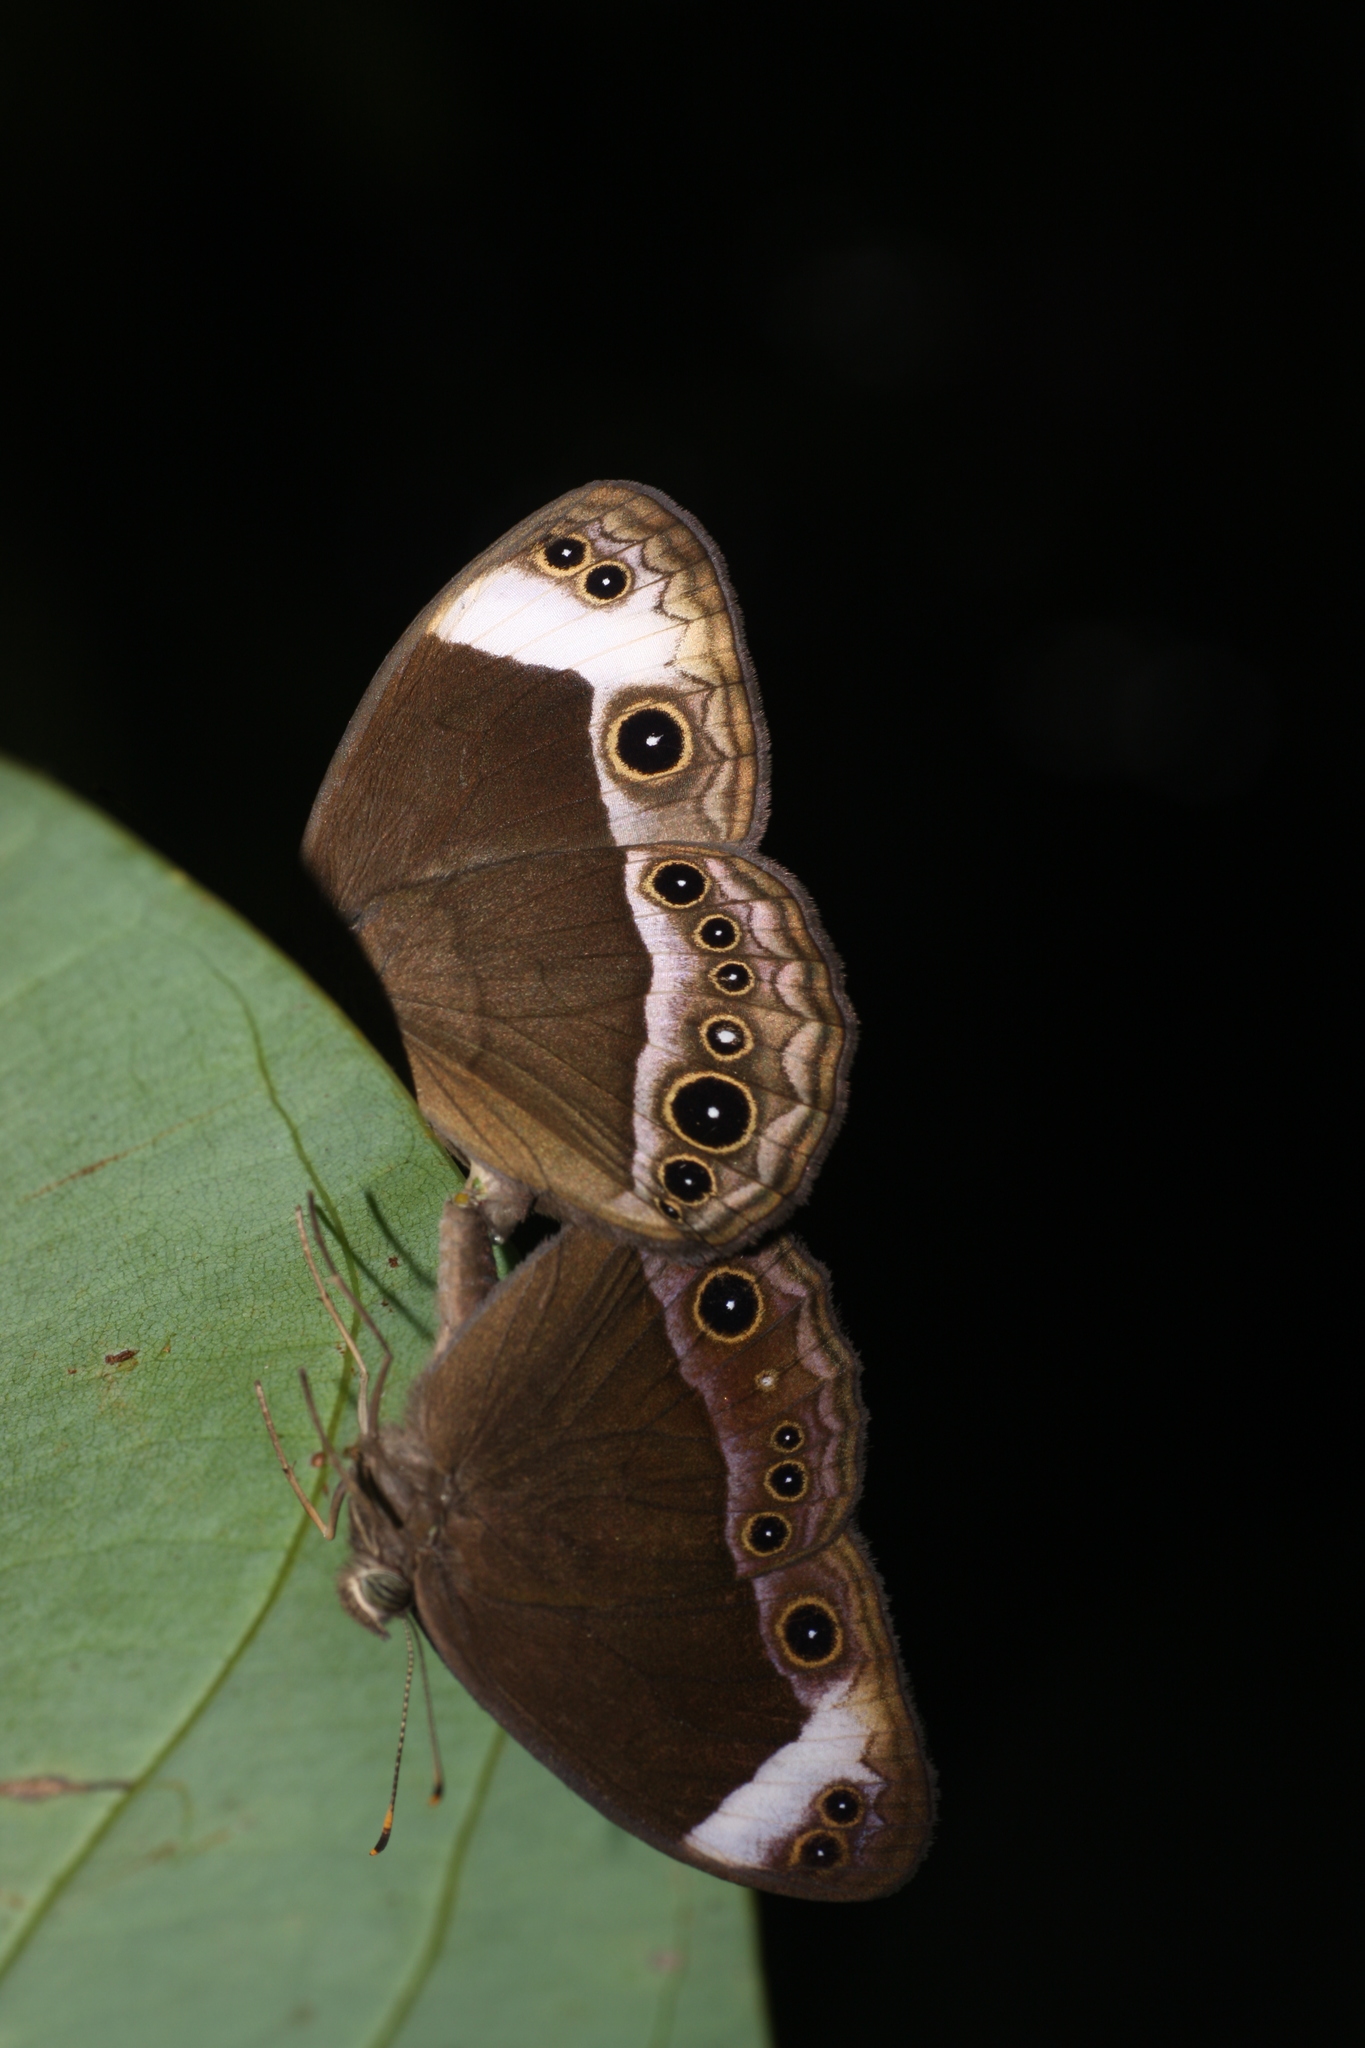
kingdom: Animalia
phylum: Arthropoda
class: Insecta
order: Lepidoptera
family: Nymphalidae
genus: Mycalesis
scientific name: Mycalesis anaxias
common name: White-bar bushbrown
